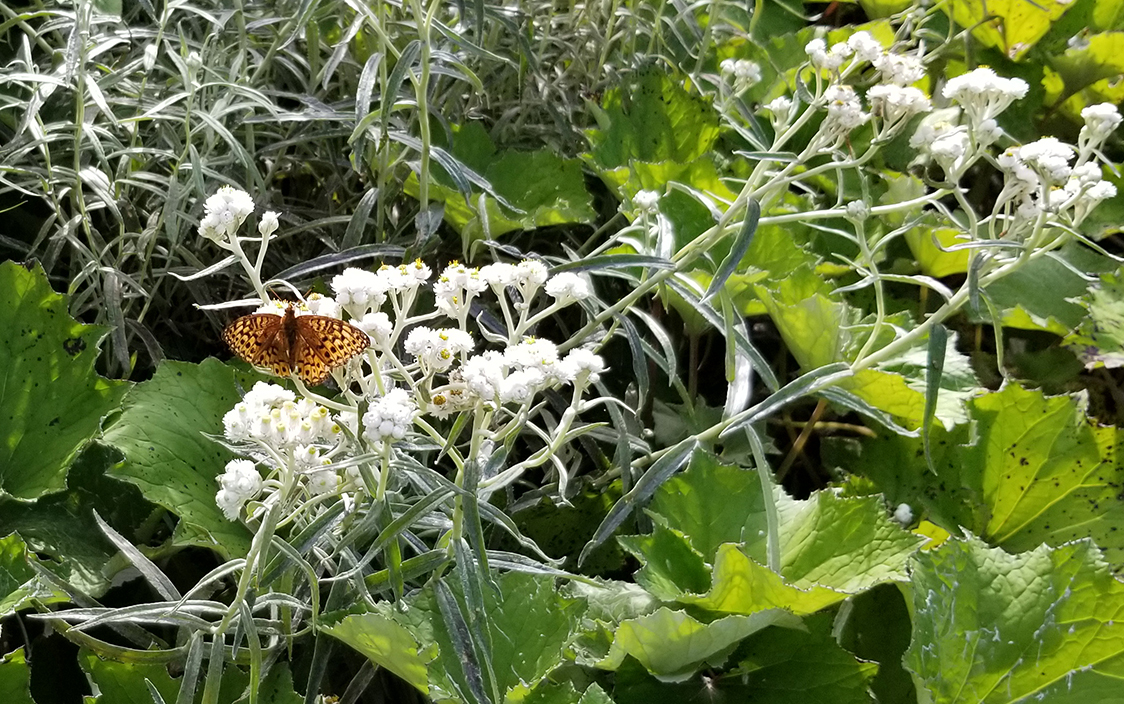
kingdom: Plantae
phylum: Tracheophyta
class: Magnoliopsida
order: Asterales
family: Asteraceae
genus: Anaphalis
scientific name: Anaphalis margaritacea
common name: Pearly everlasting
